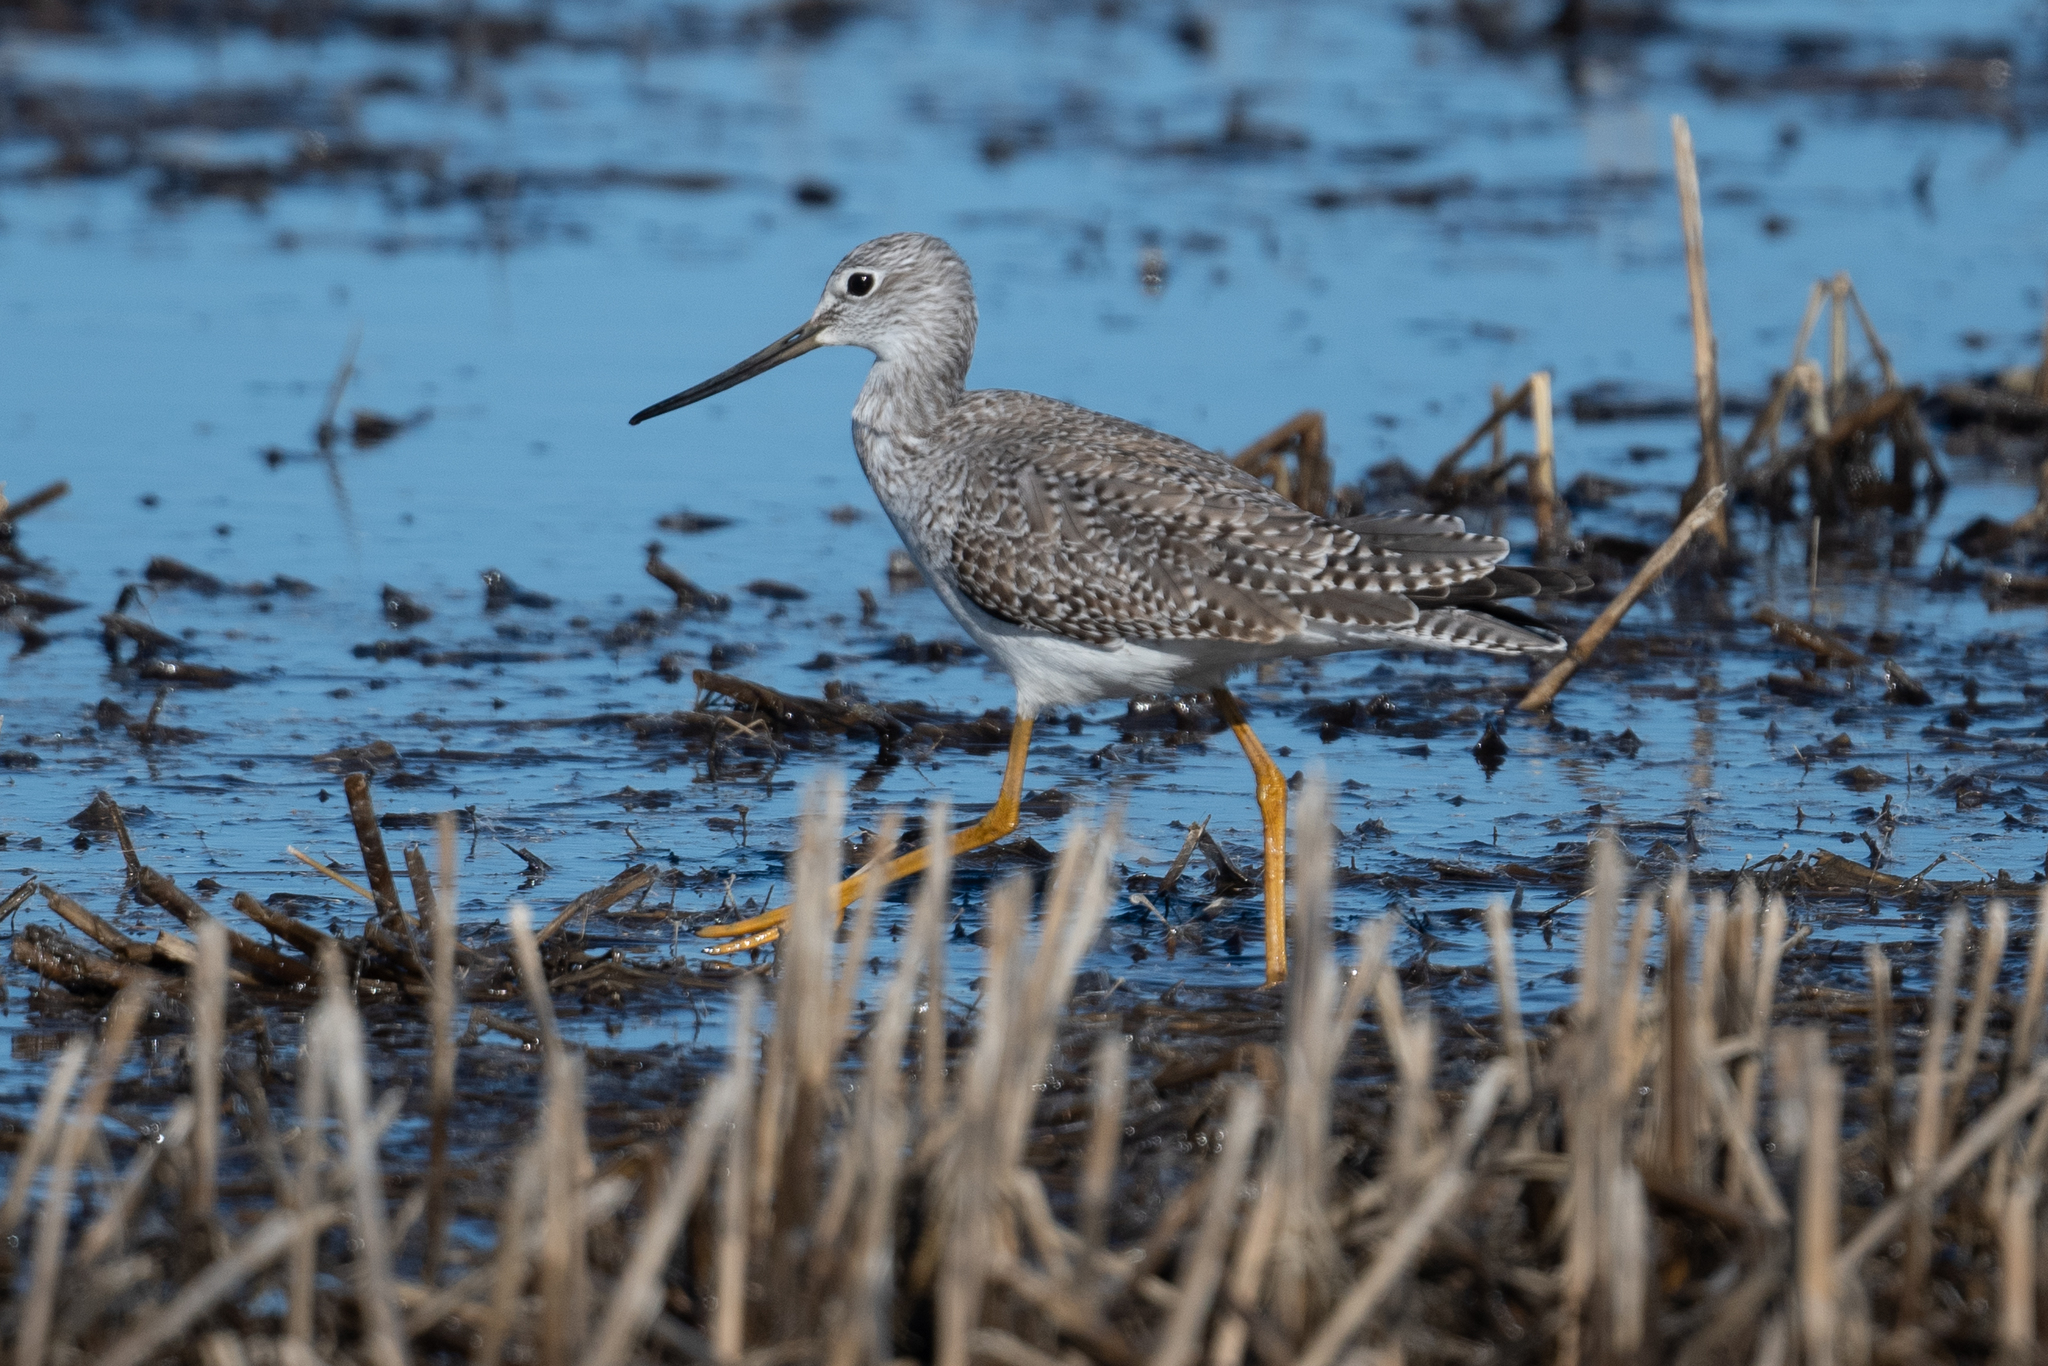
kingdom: Animalia
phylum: Chordata
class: Aves
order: Charadriiformes
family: Scolopacidae
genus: Tringa
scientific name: Tringa melanoleuca
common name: Greater yellowlegs
